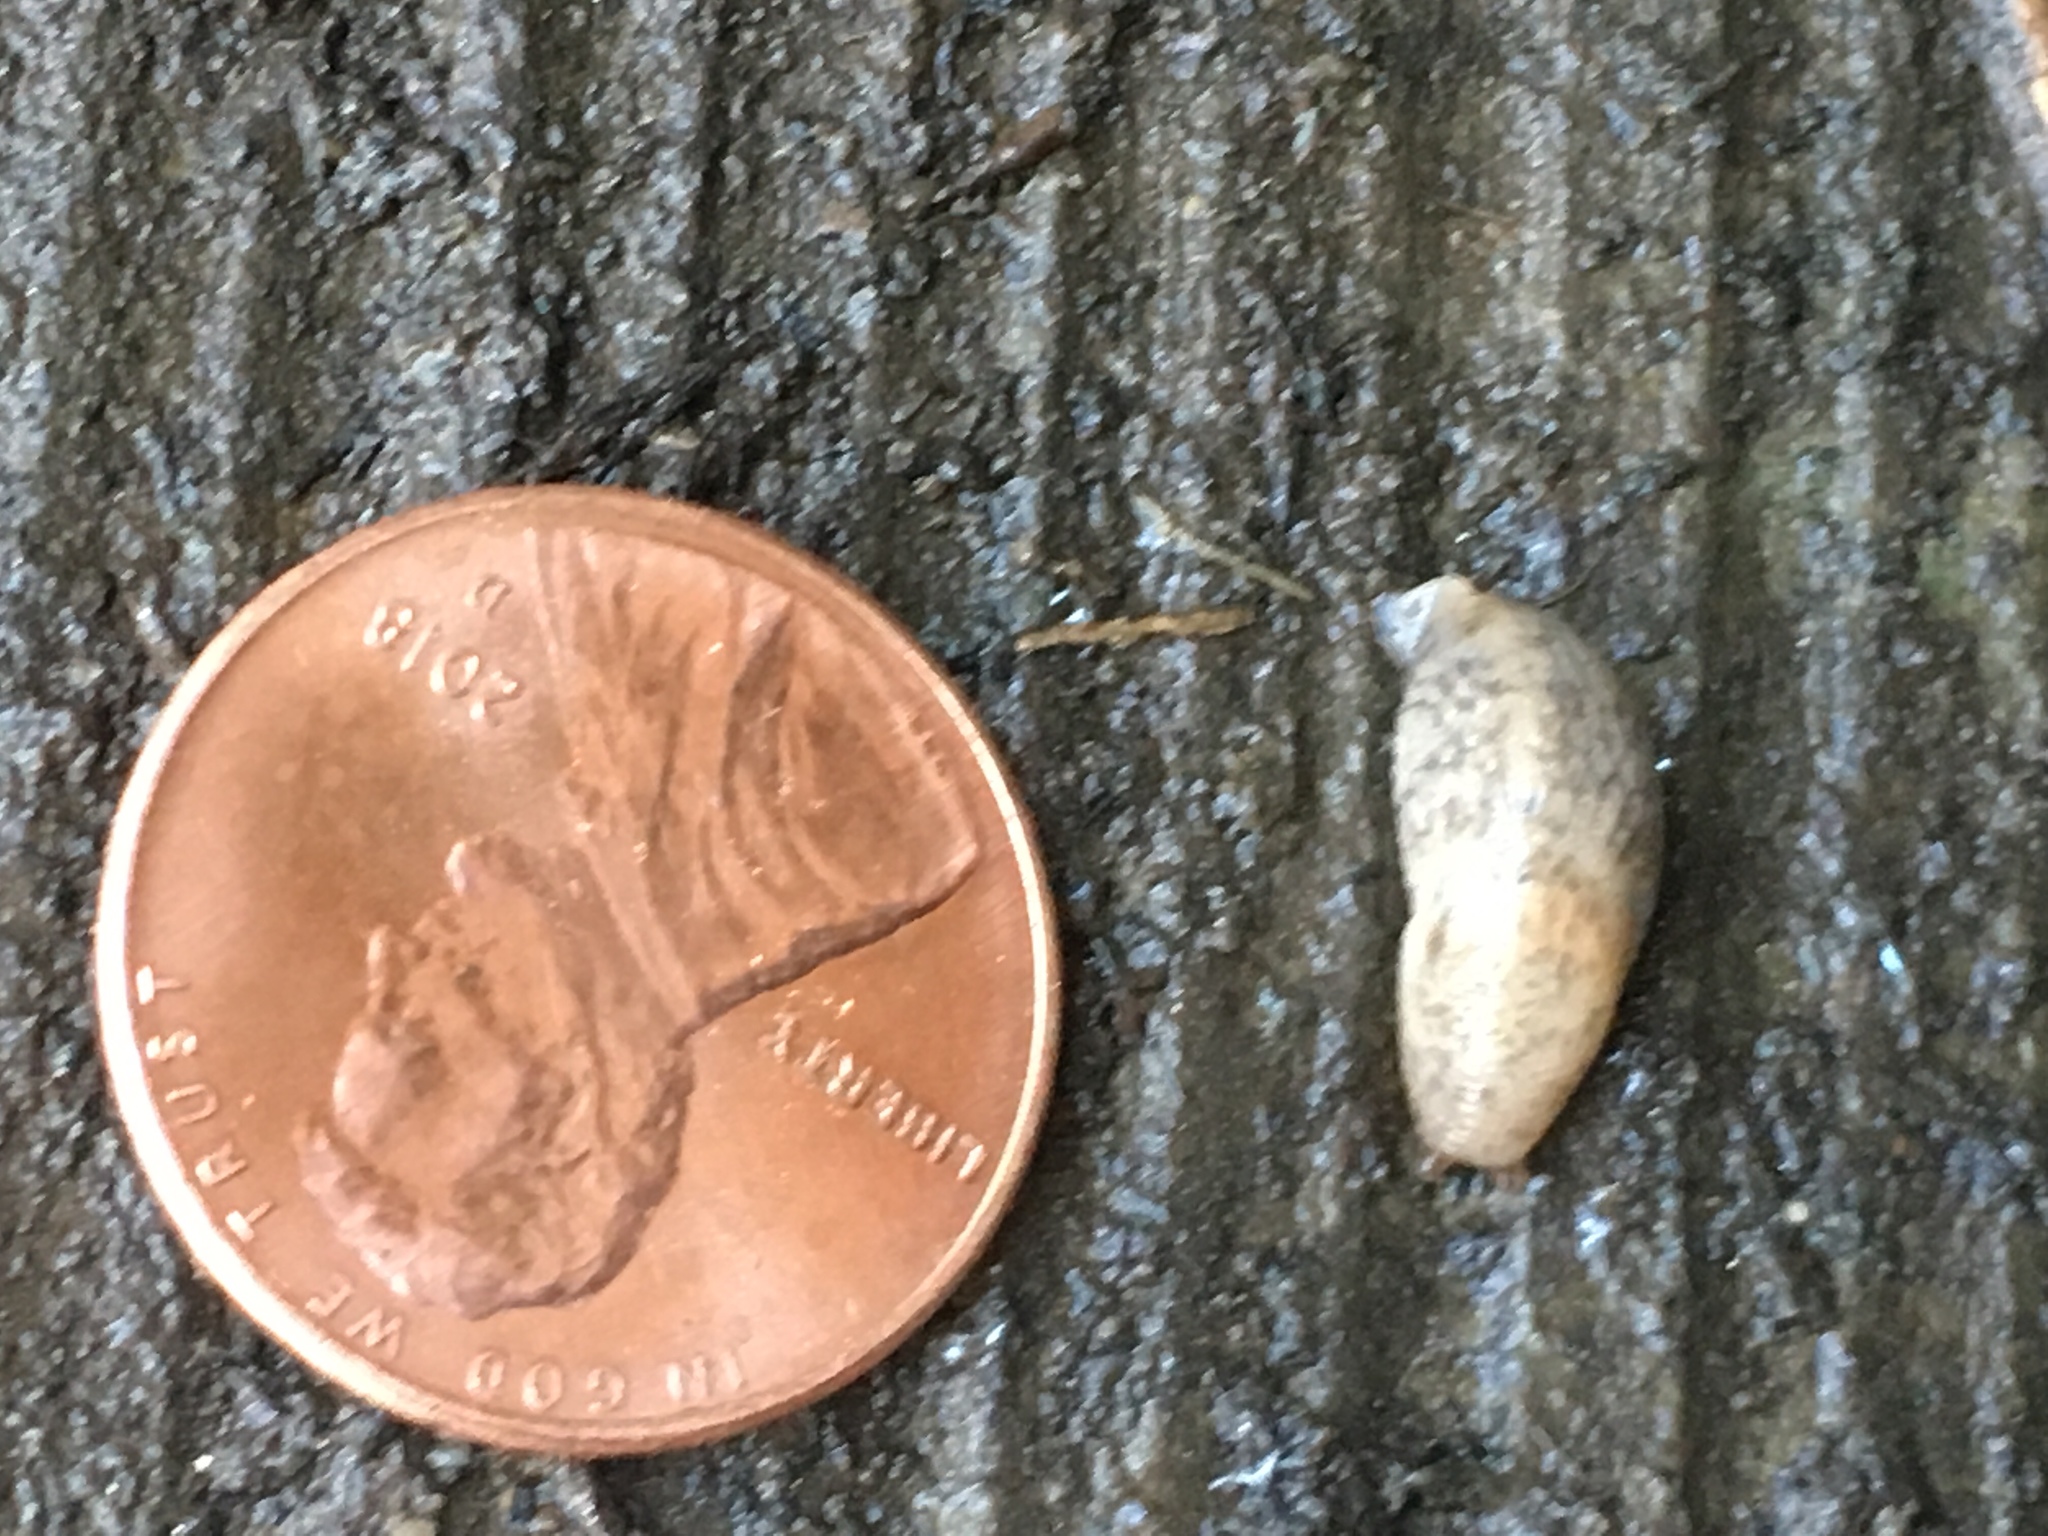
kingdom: Animalia
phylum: Mollusca
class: Gastropoda
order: Stylommatophora
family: Agriolimacidae
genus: Deroceras
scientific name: Deroceras reticulatum
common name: Gray field slug
